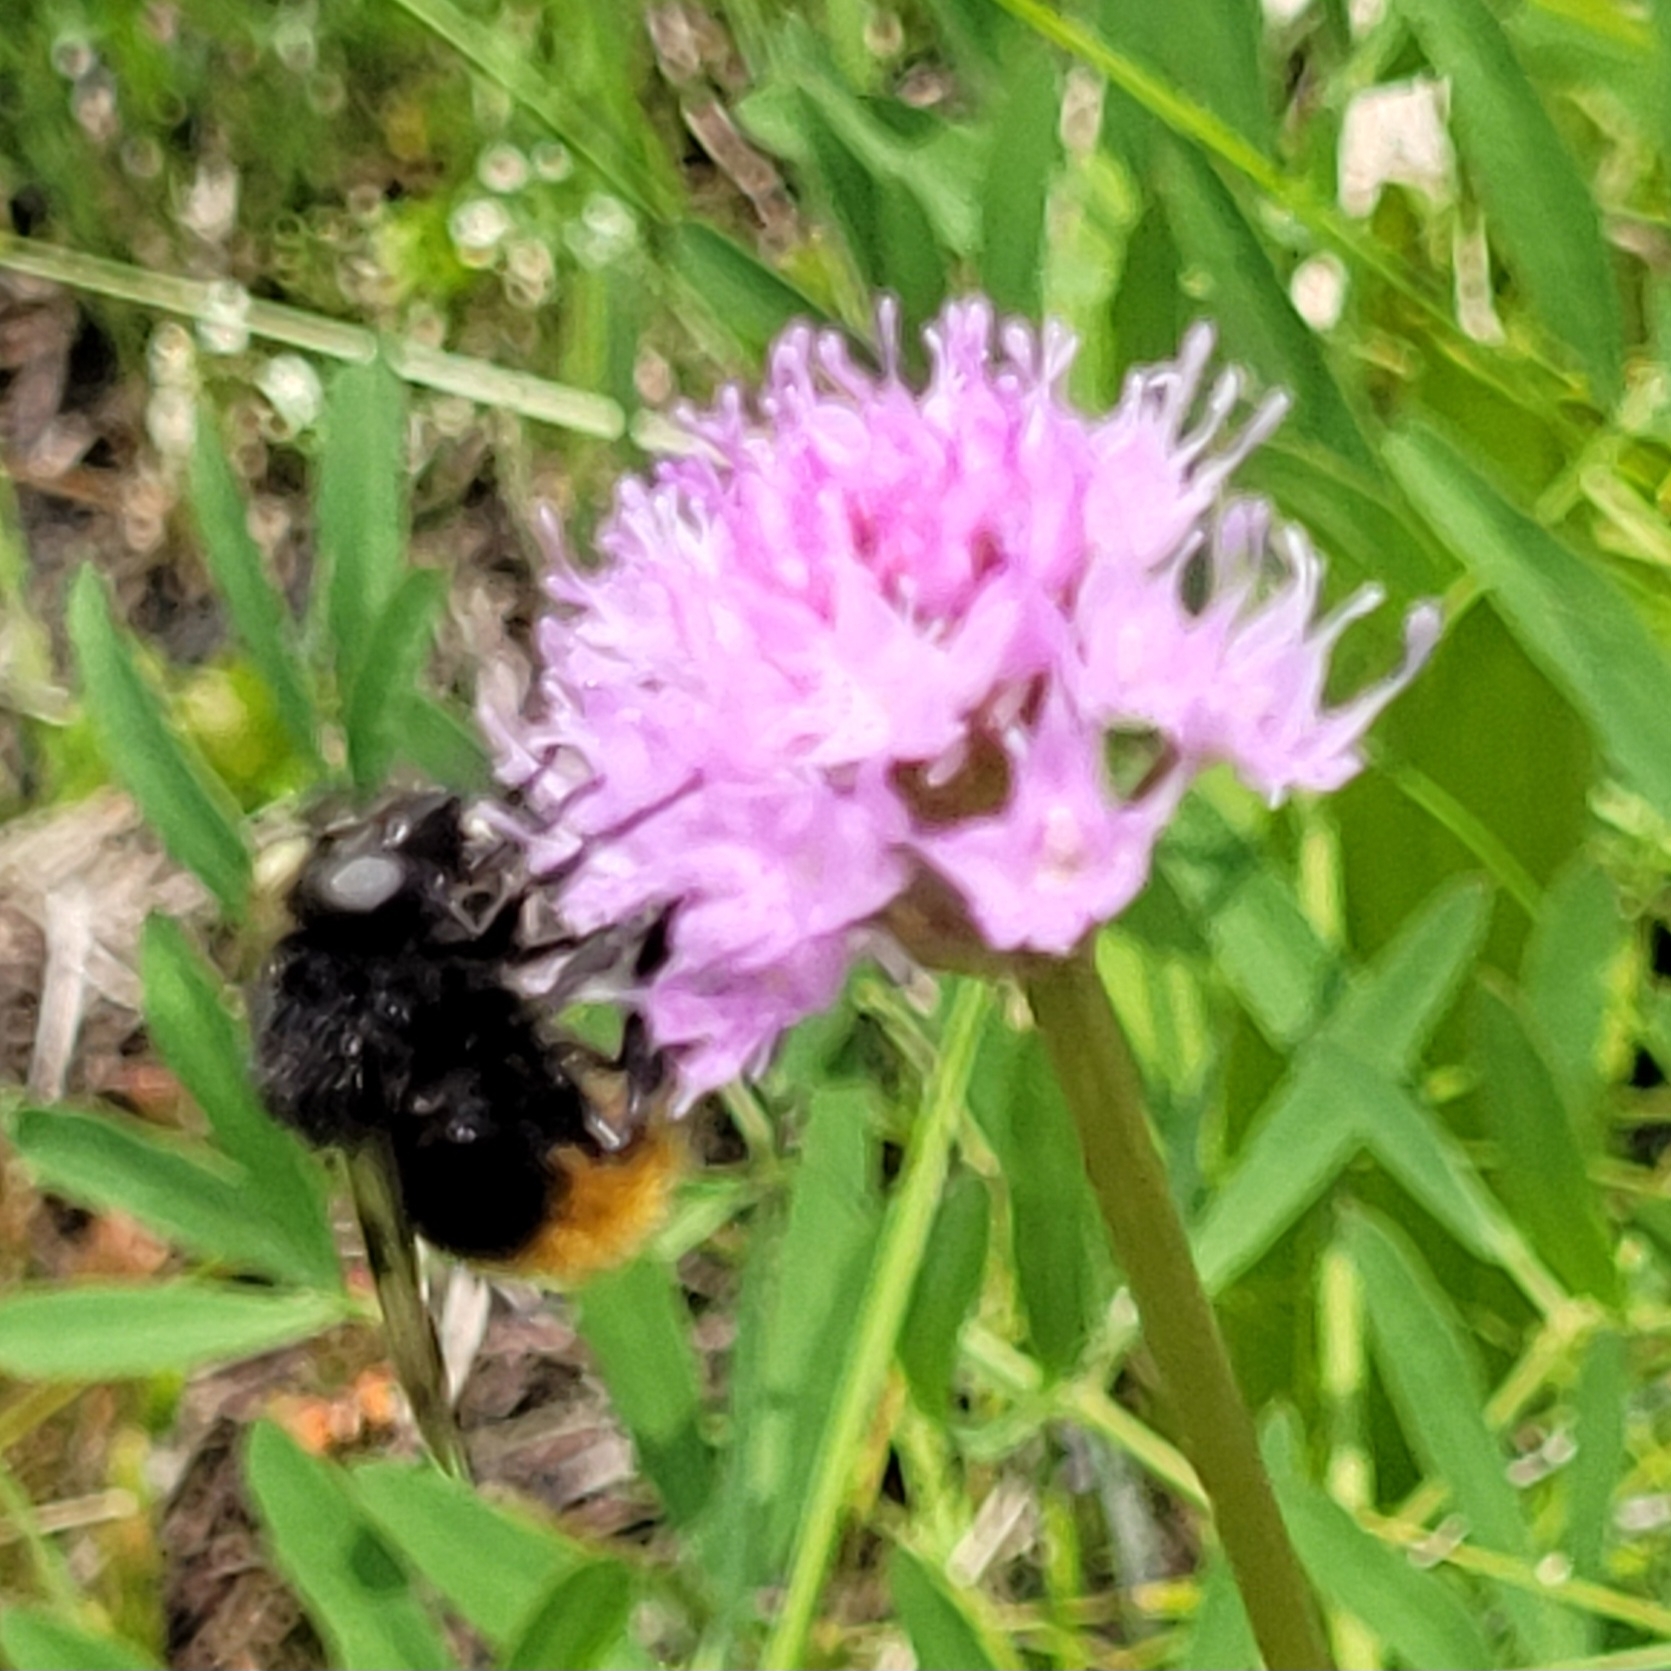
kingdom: Plantae
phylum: Tracheophyta
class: Liliopsida
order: Asparagales
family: Orchidaceae
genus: Traunsteinera
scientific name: Traunsteinera globosa
